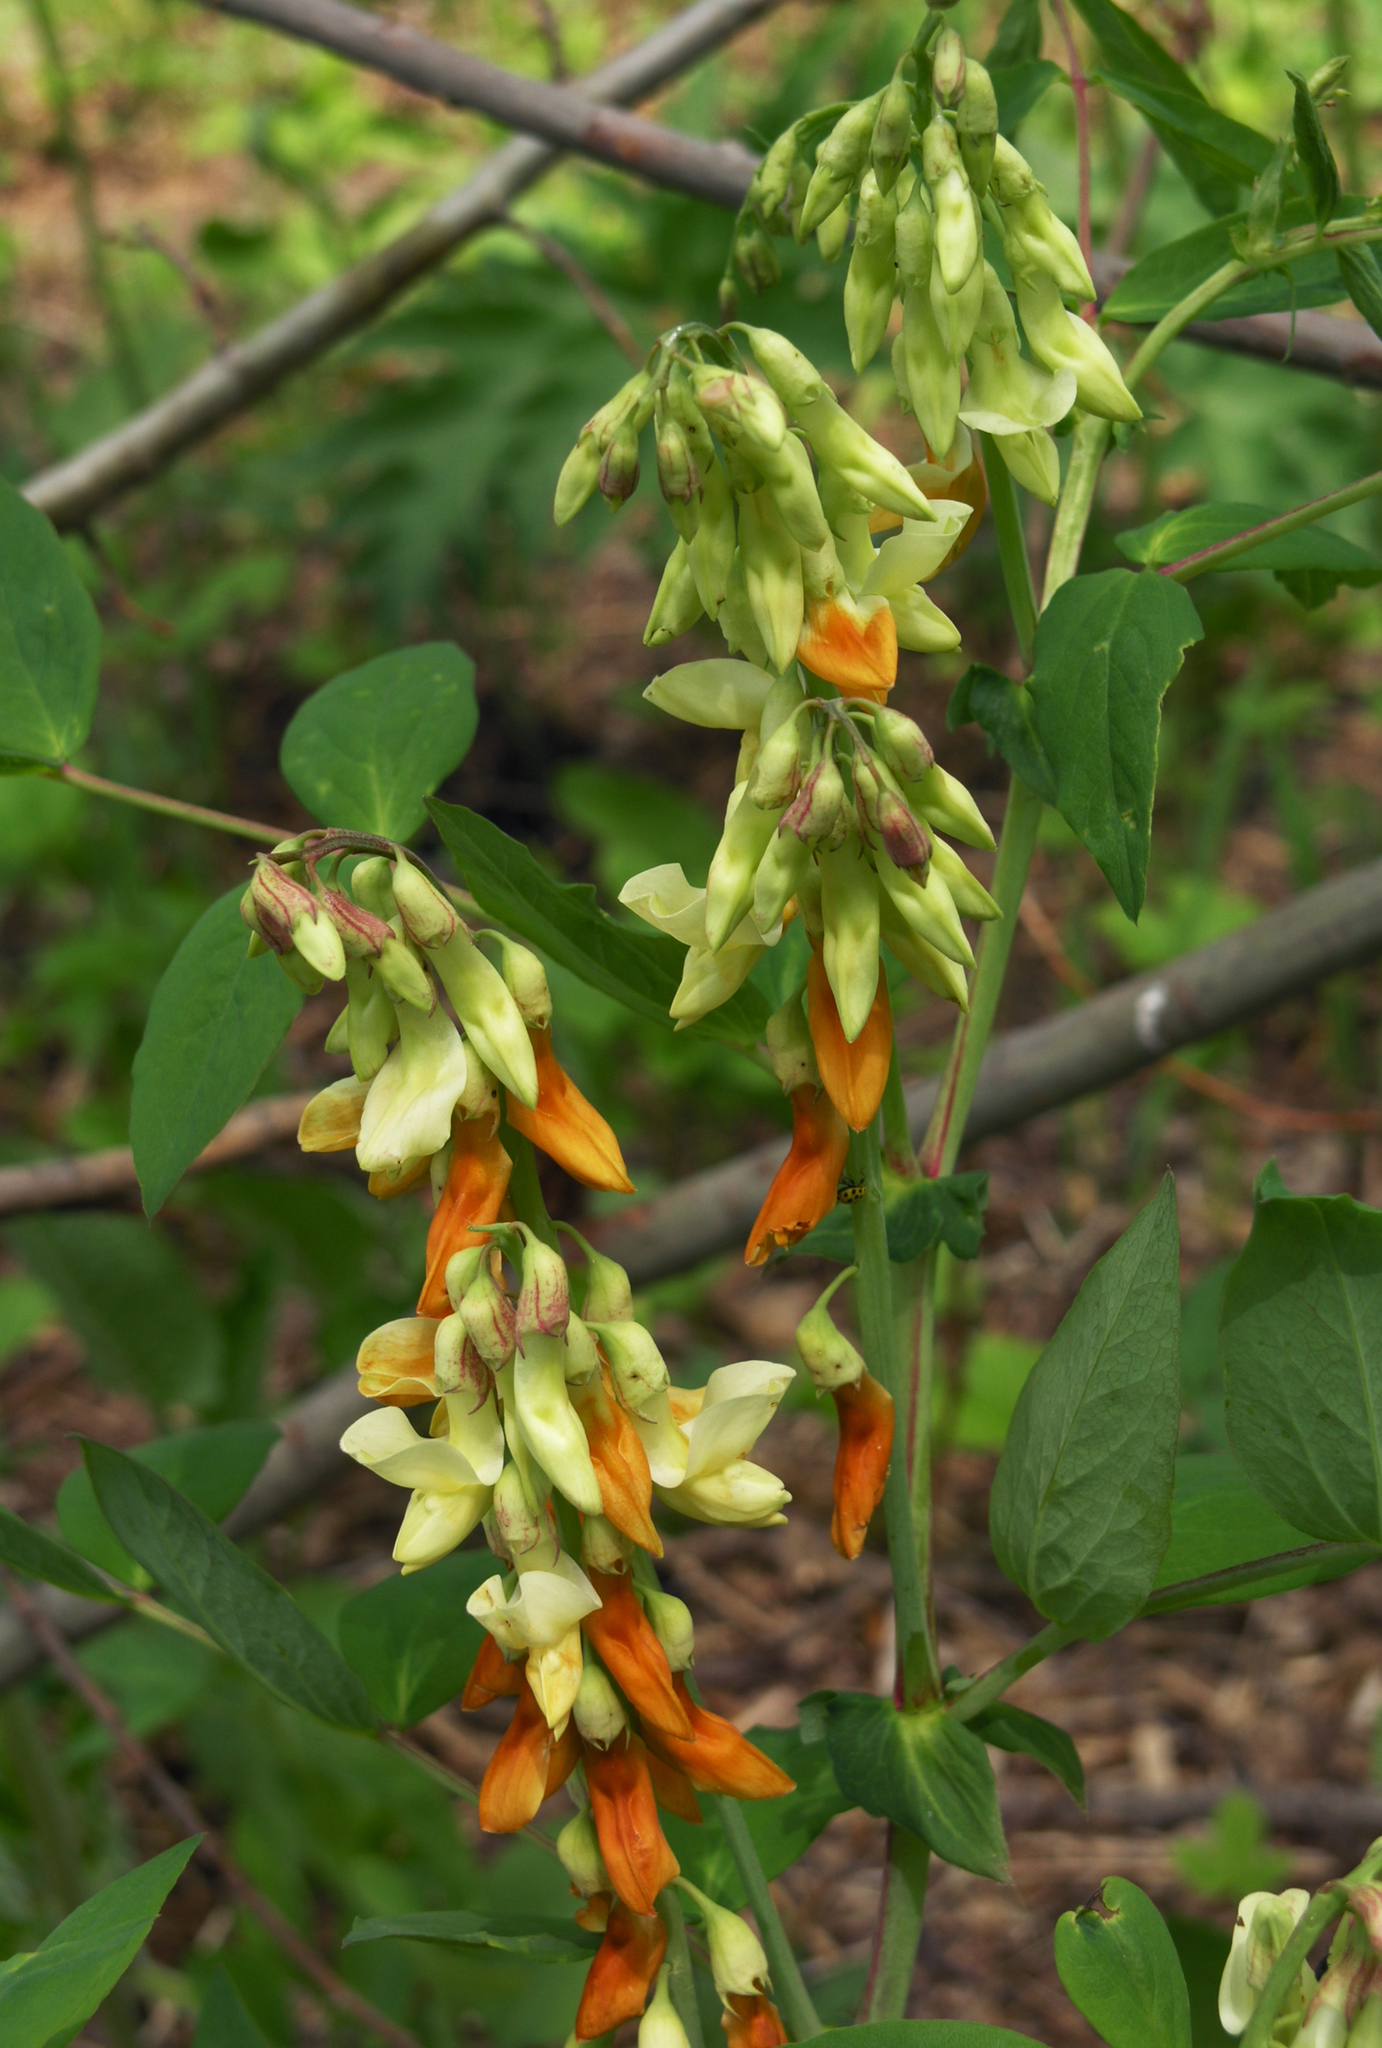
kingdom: Plantae
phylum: Tracheophyta
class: Magnoliopsida
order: Fabales
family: Fabaceae
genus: Lathyrus
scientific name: Lathyrus gmelinii
